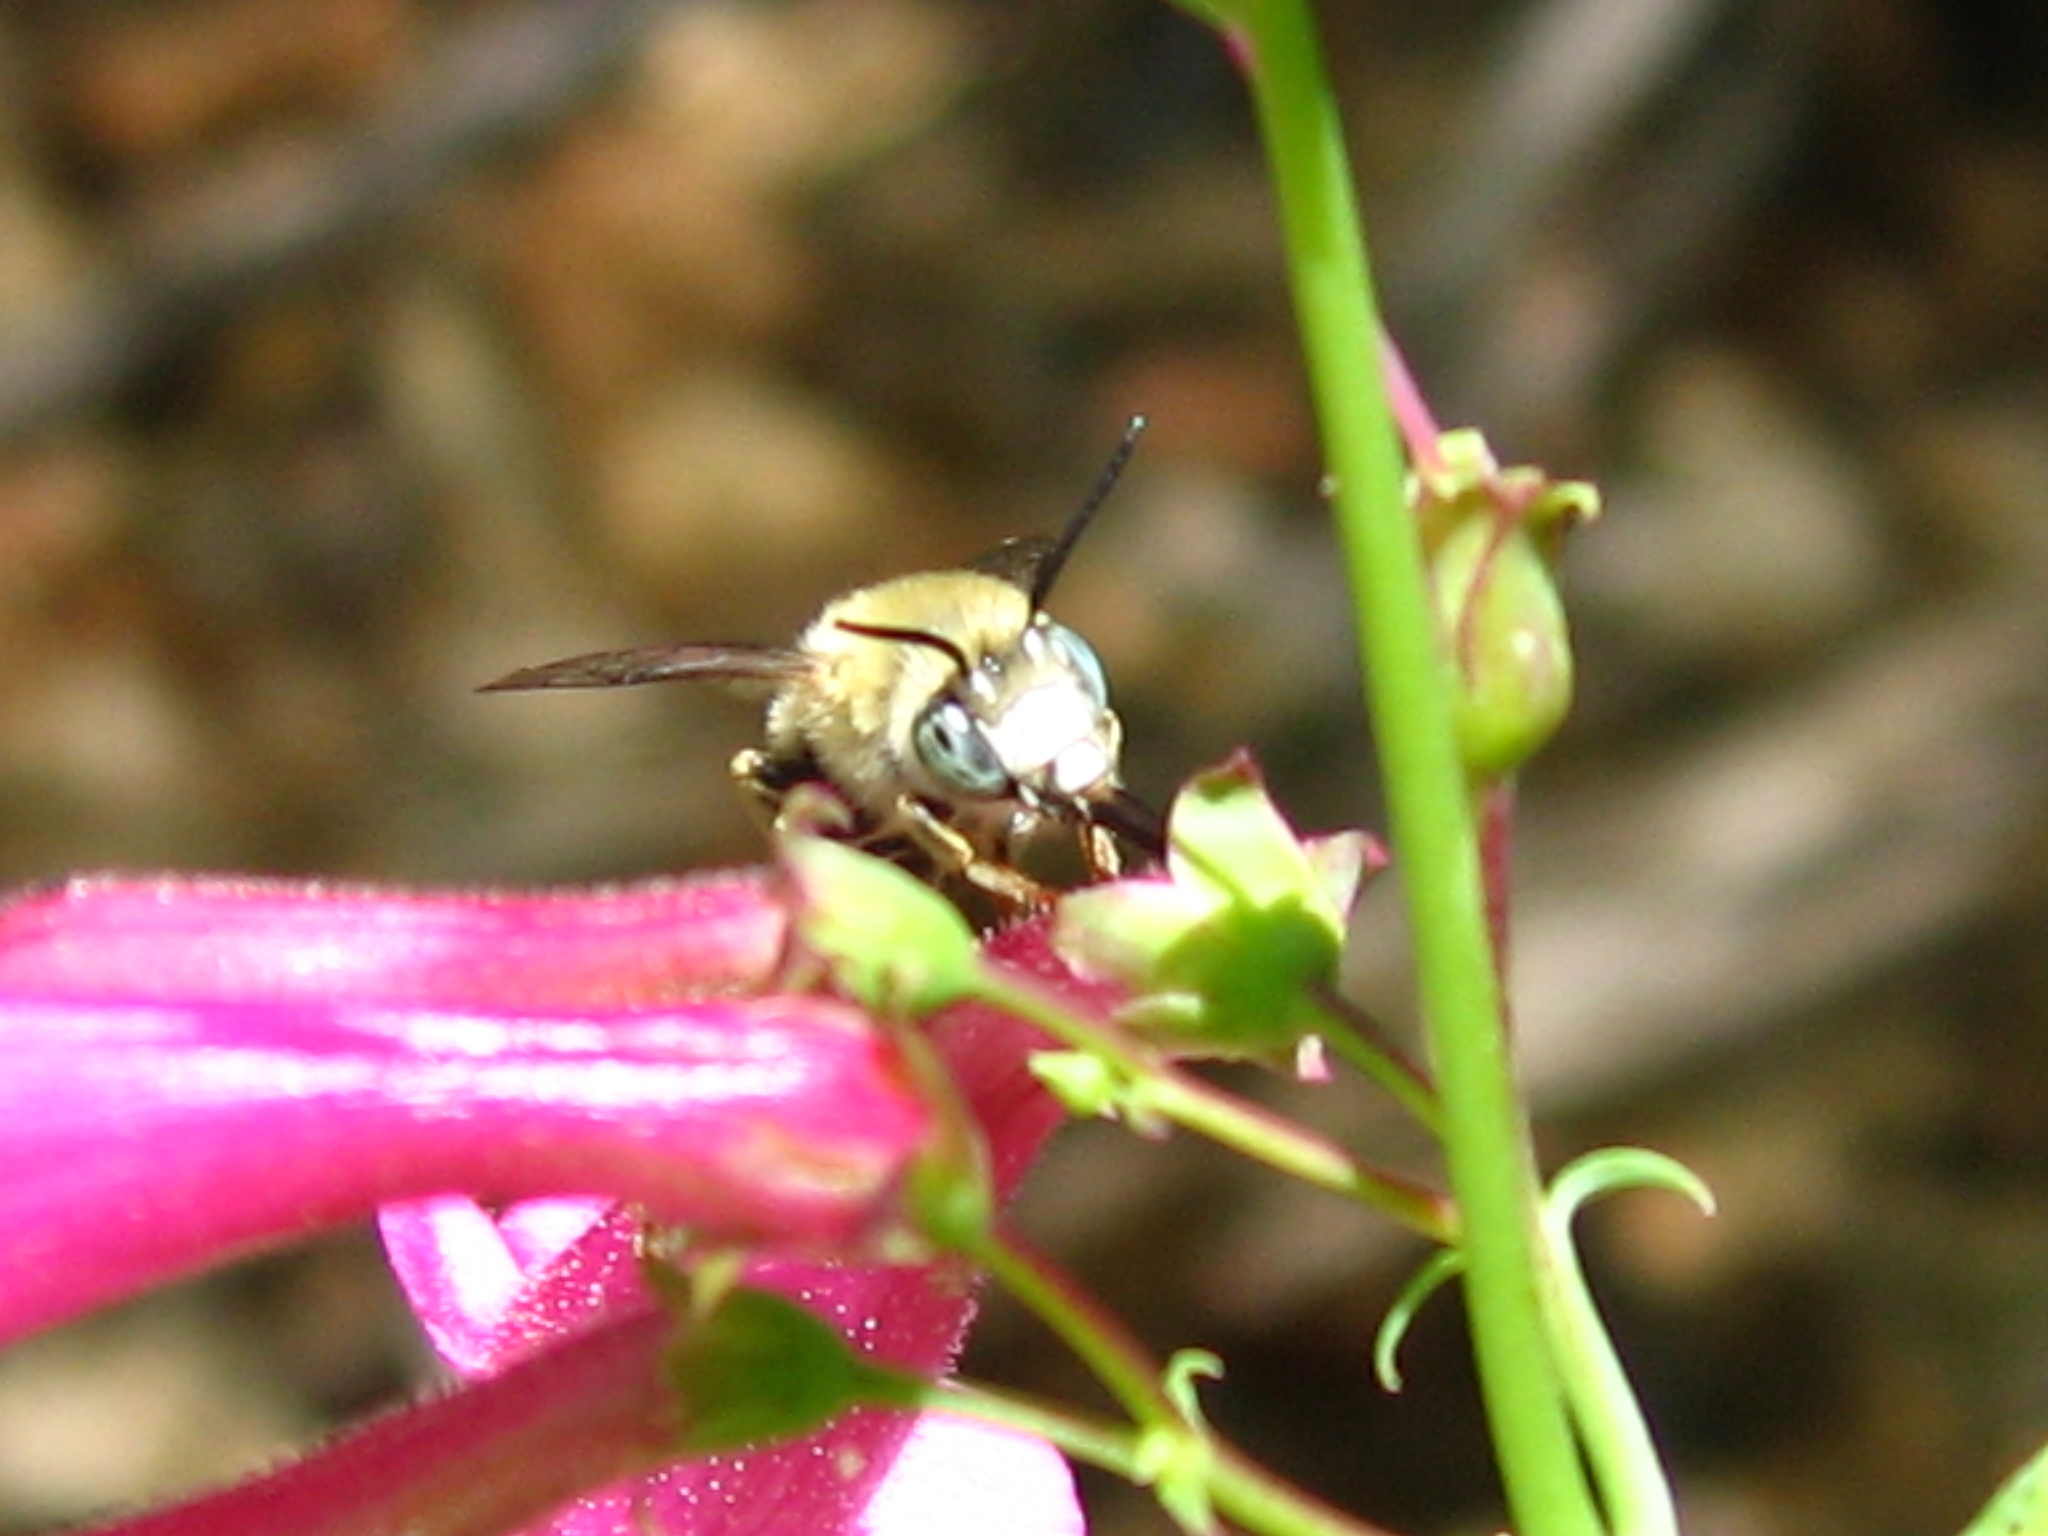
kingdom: Animalia
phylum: Arthropoda
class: Insecta
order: Hymenoptera
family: Apidae
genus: Anthophora
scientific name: Anthophora urbana
